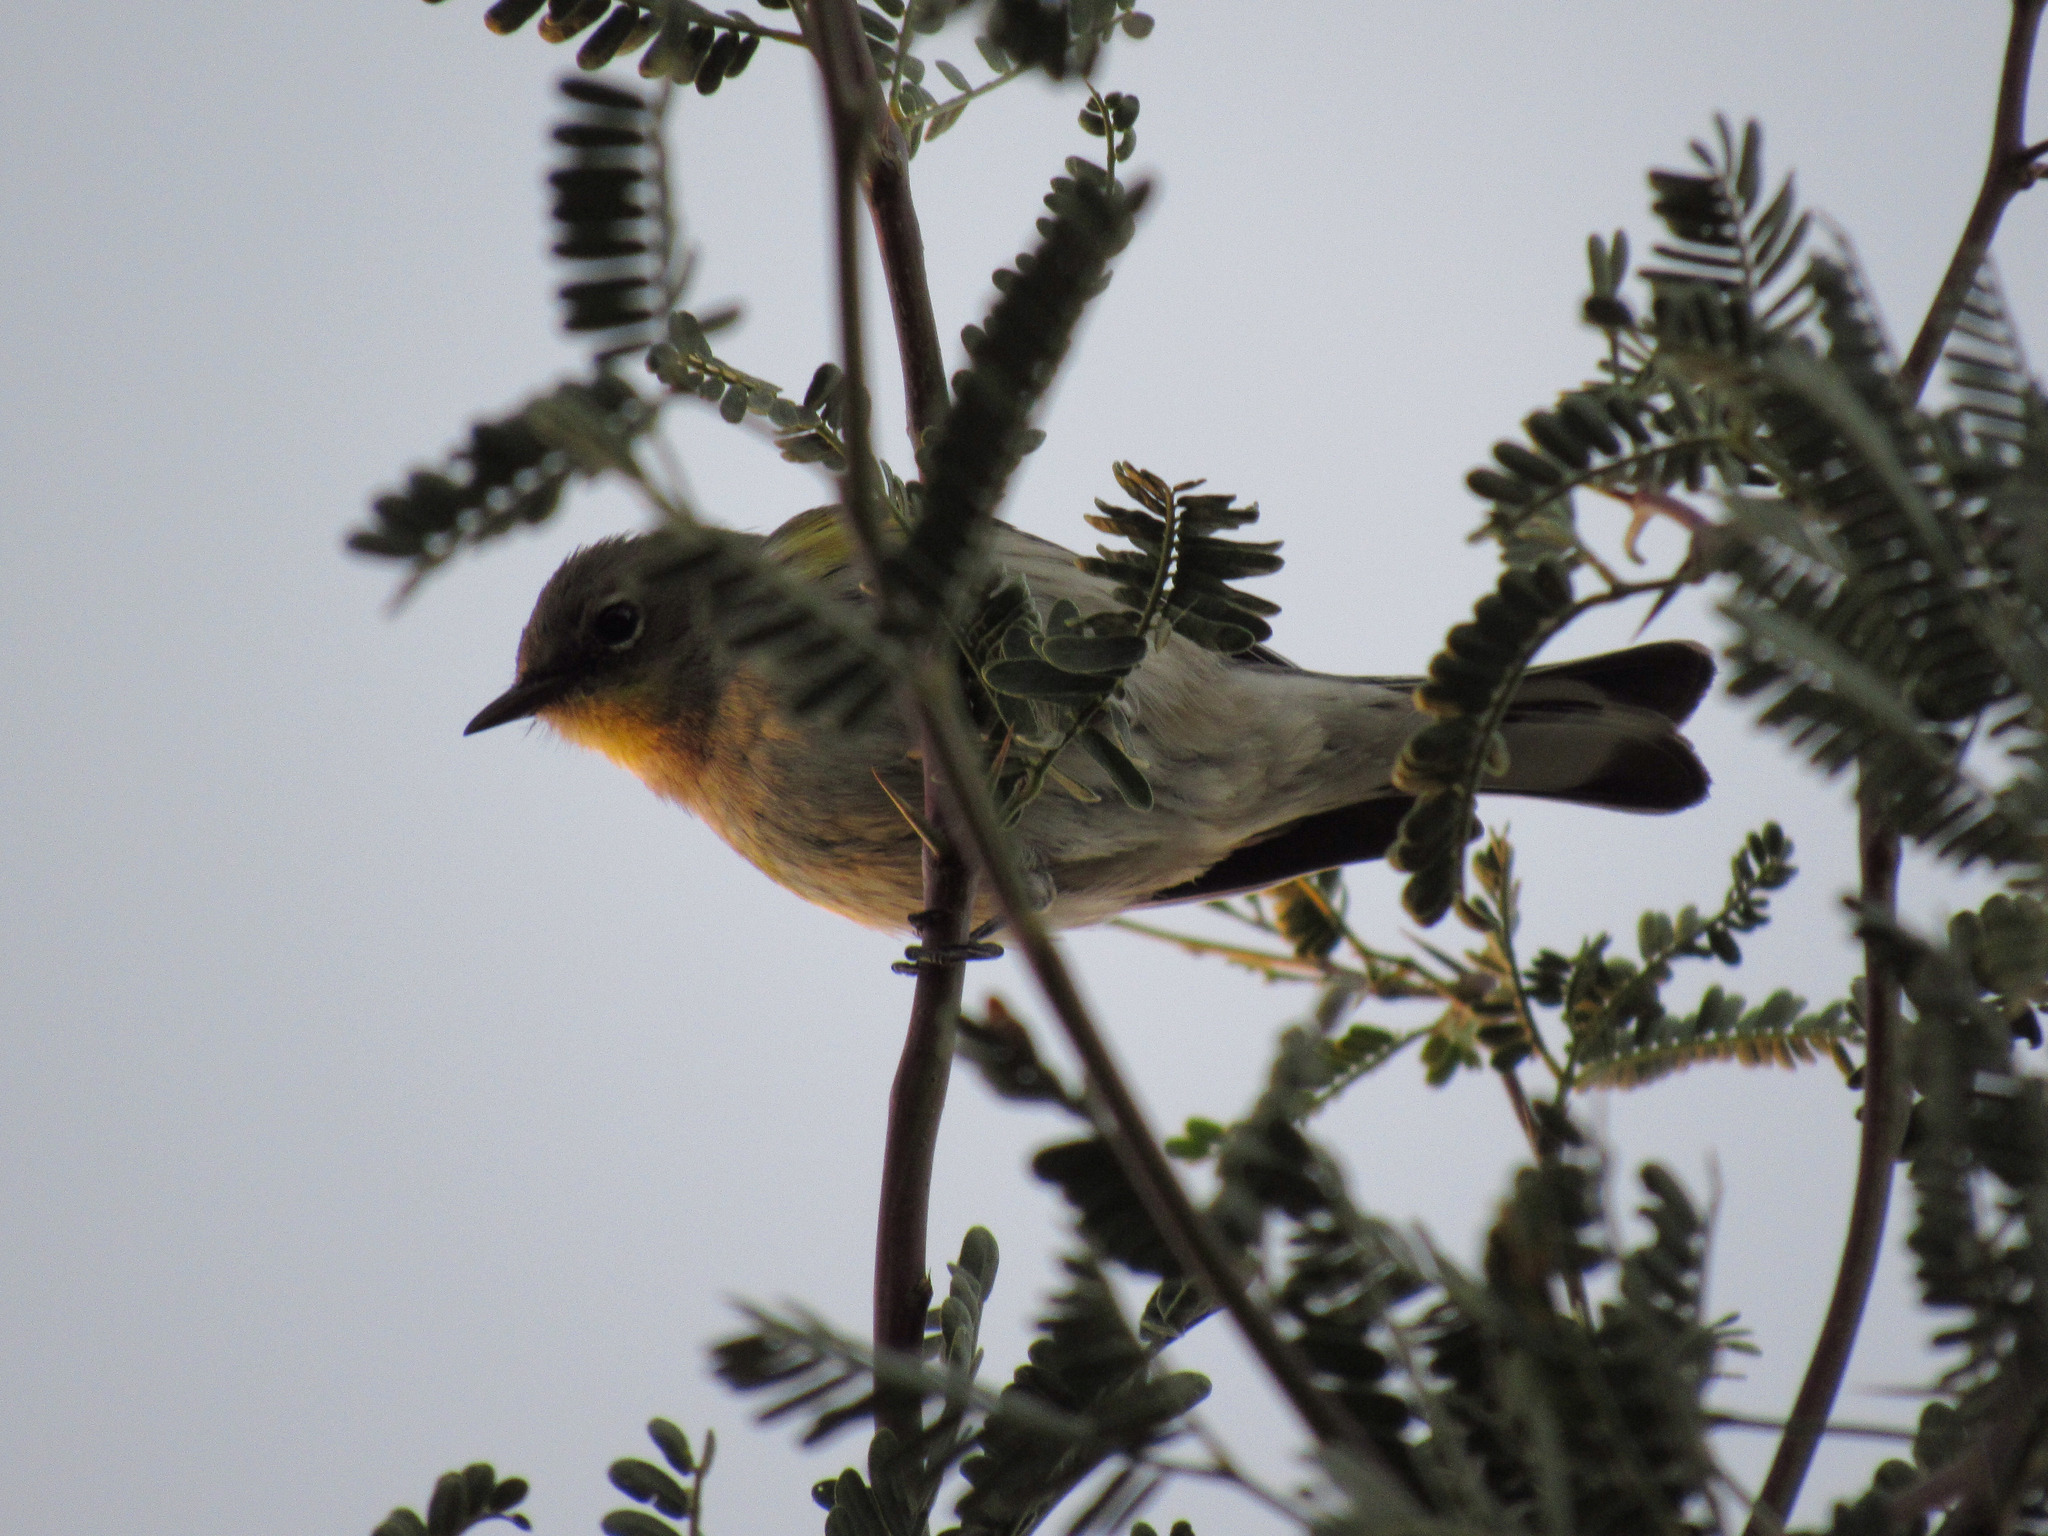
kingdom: Animalia
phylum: Chordata
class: Aves
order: Passeriformes
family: Parulidae
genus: Setophaga
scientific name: Setophaga coronata
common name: Myrtle warbler
